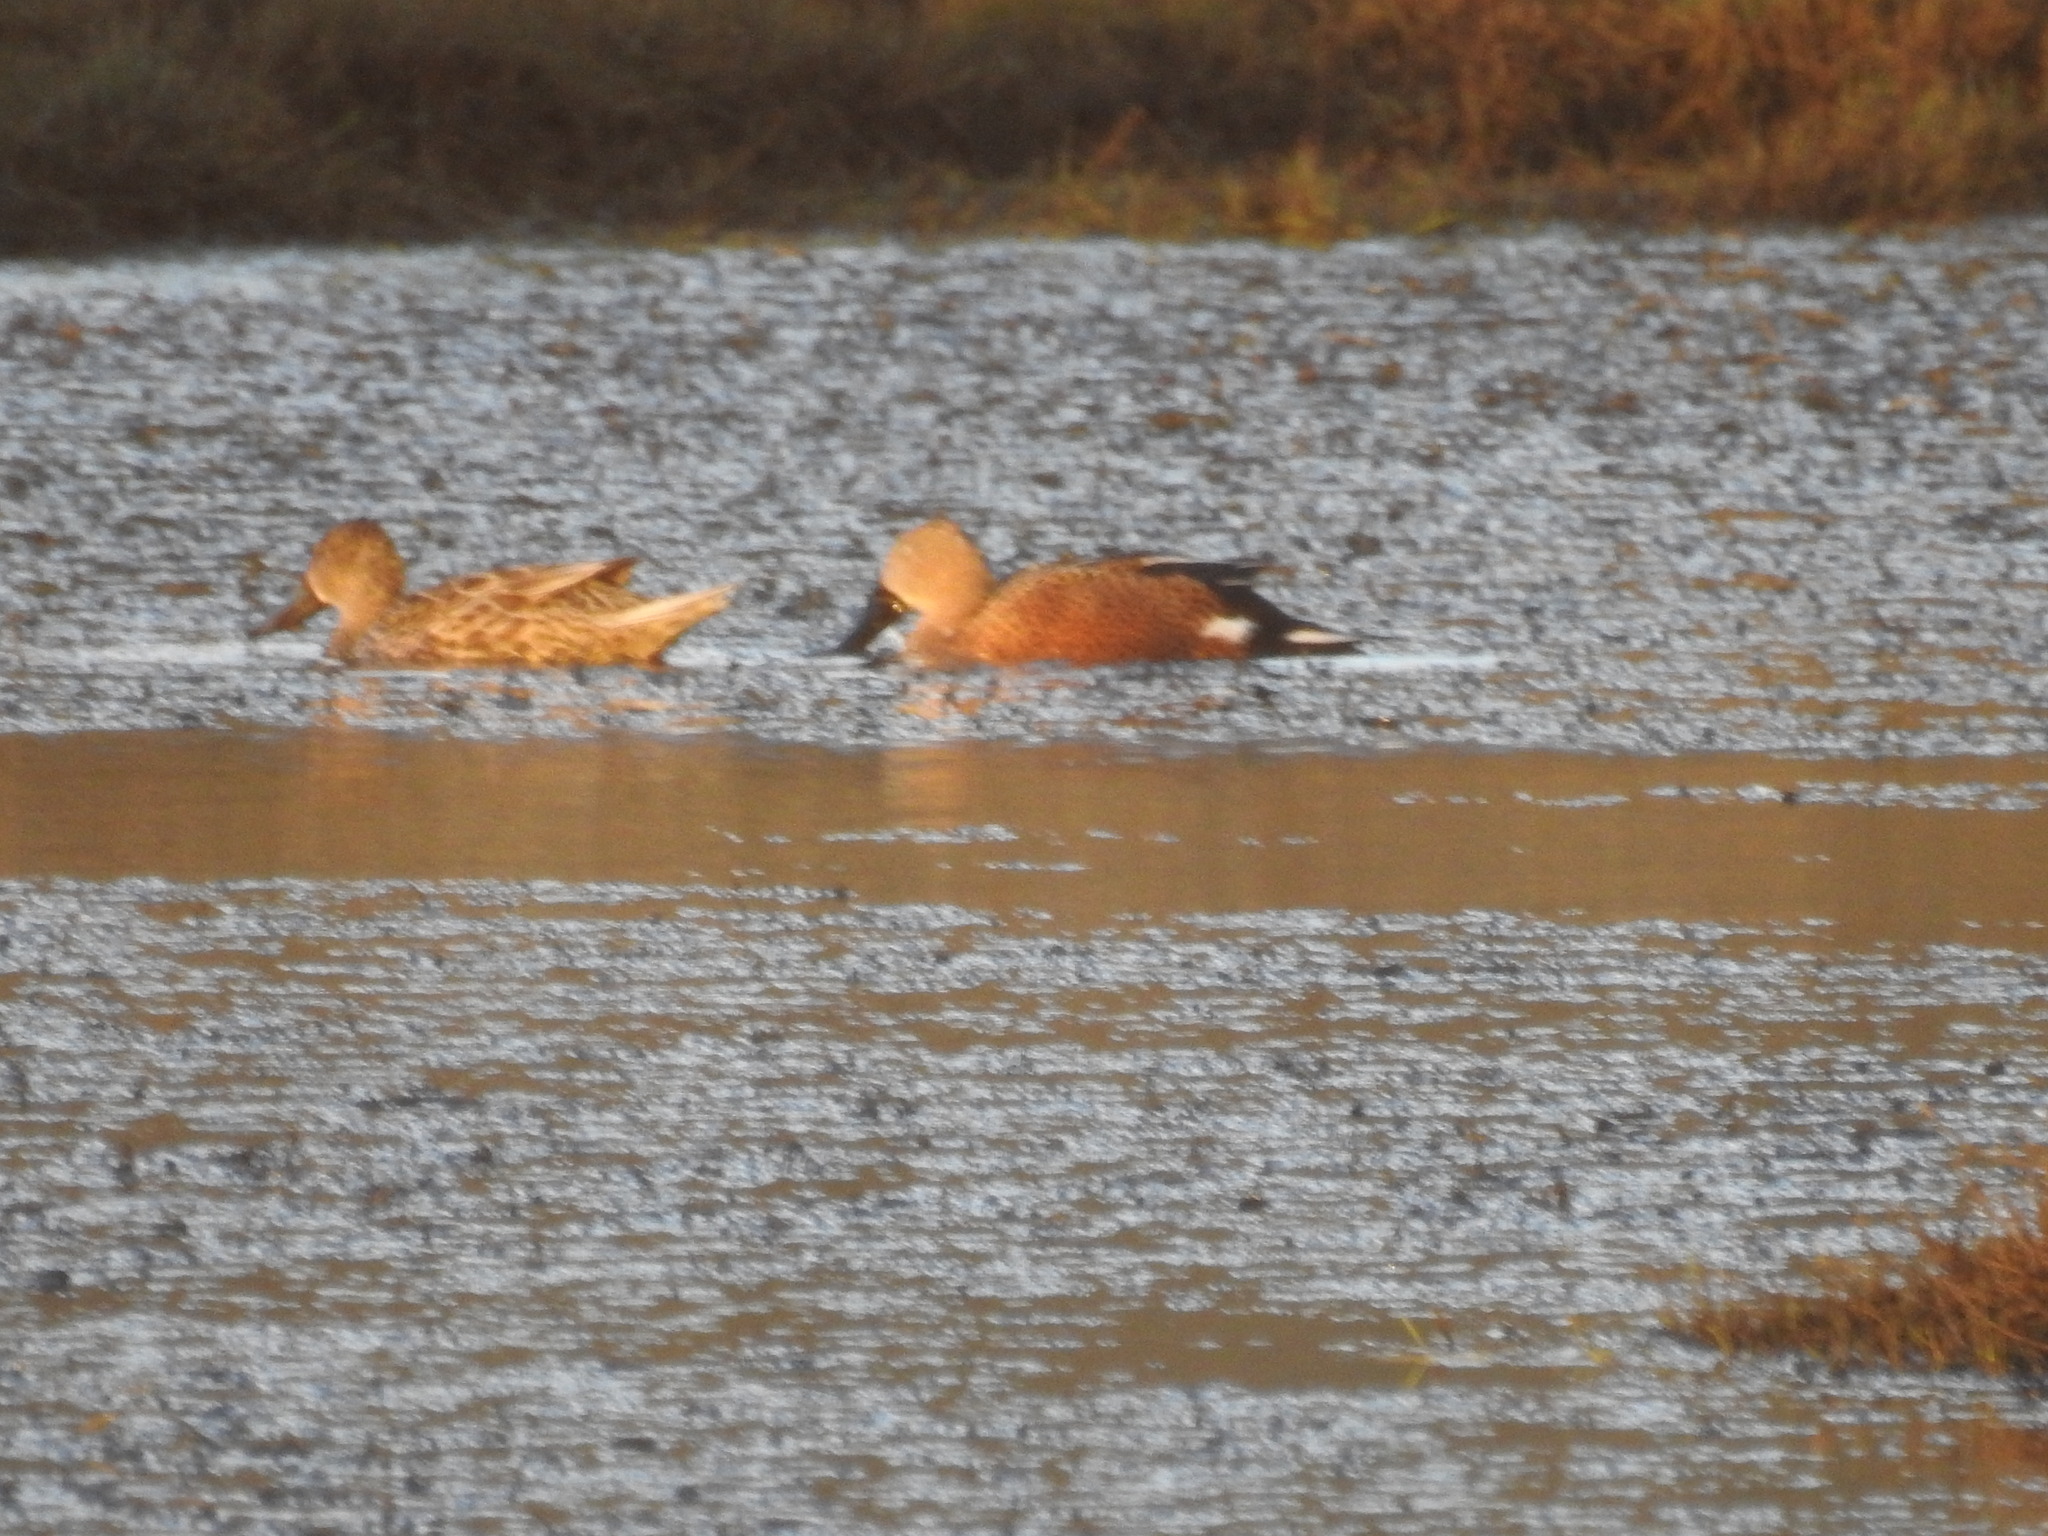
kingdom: Animalia
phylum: Chordata
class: Aves
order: Anseriformes
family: Anatidae
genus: Spatula
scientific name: Spatula platalea
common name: Red shoveler
